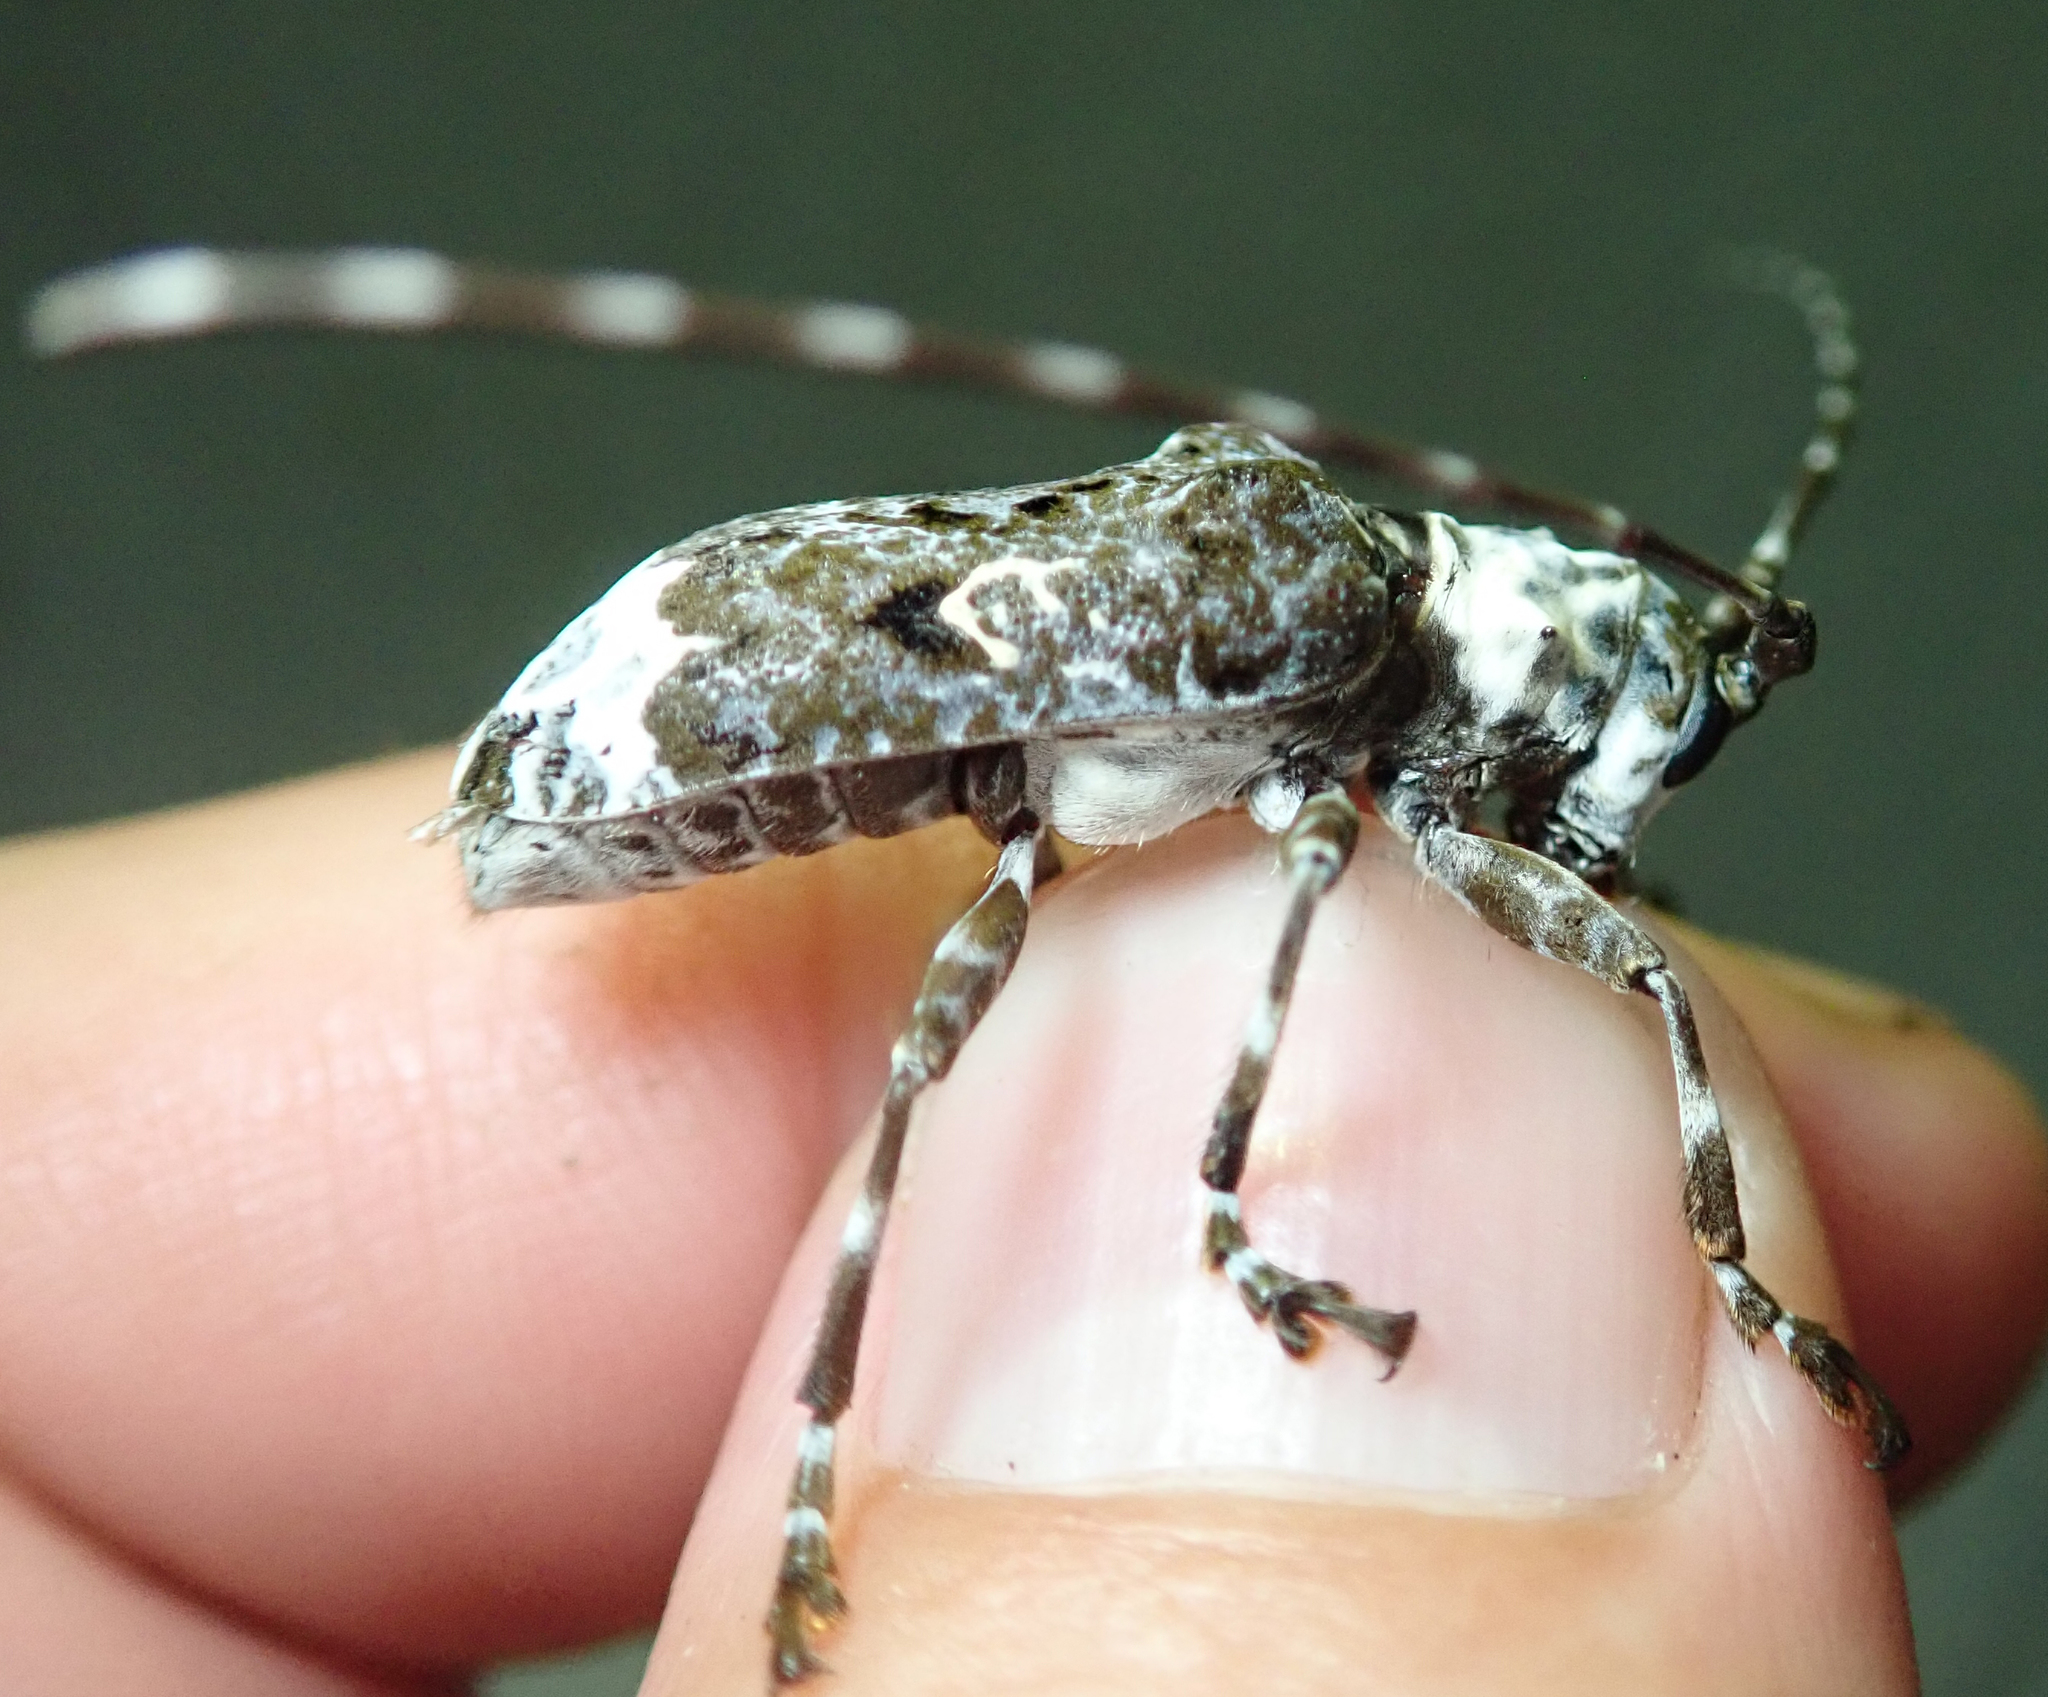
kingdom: Animalia
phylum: Arthropoda
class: Insecta
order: Coleoptera
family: Cerambycidae
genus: Lasiopezus
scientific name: Lasiopezus longimanus
